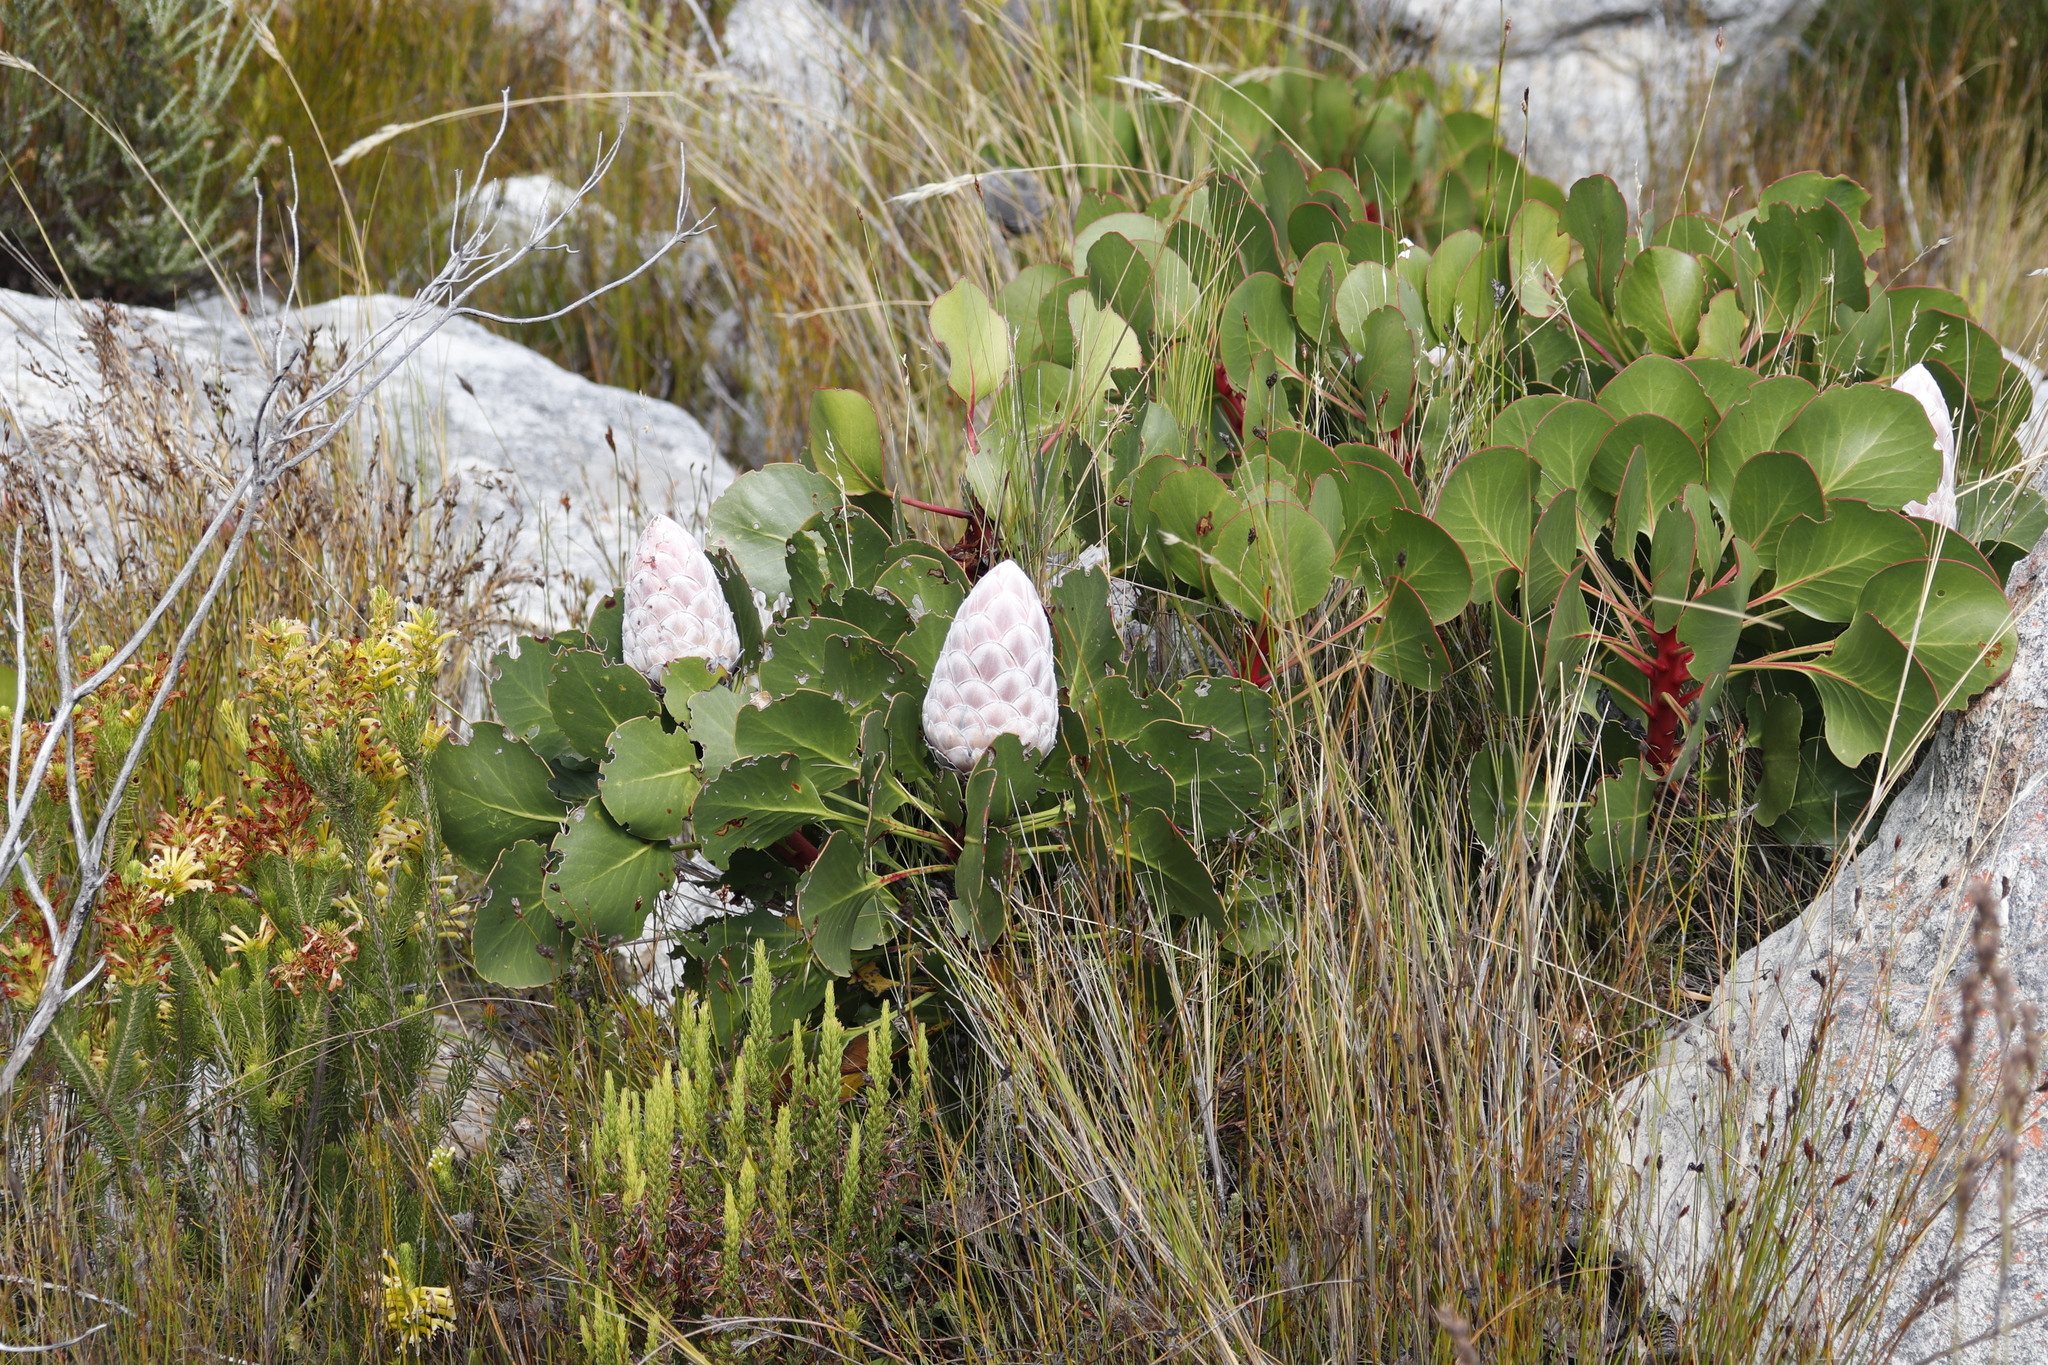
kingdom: Plantae
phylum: Tracheophyta
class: Magnoliopsida
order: Proteales
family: Proteaceae
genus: Protea
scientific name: Protea cynaroides
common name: King protea
